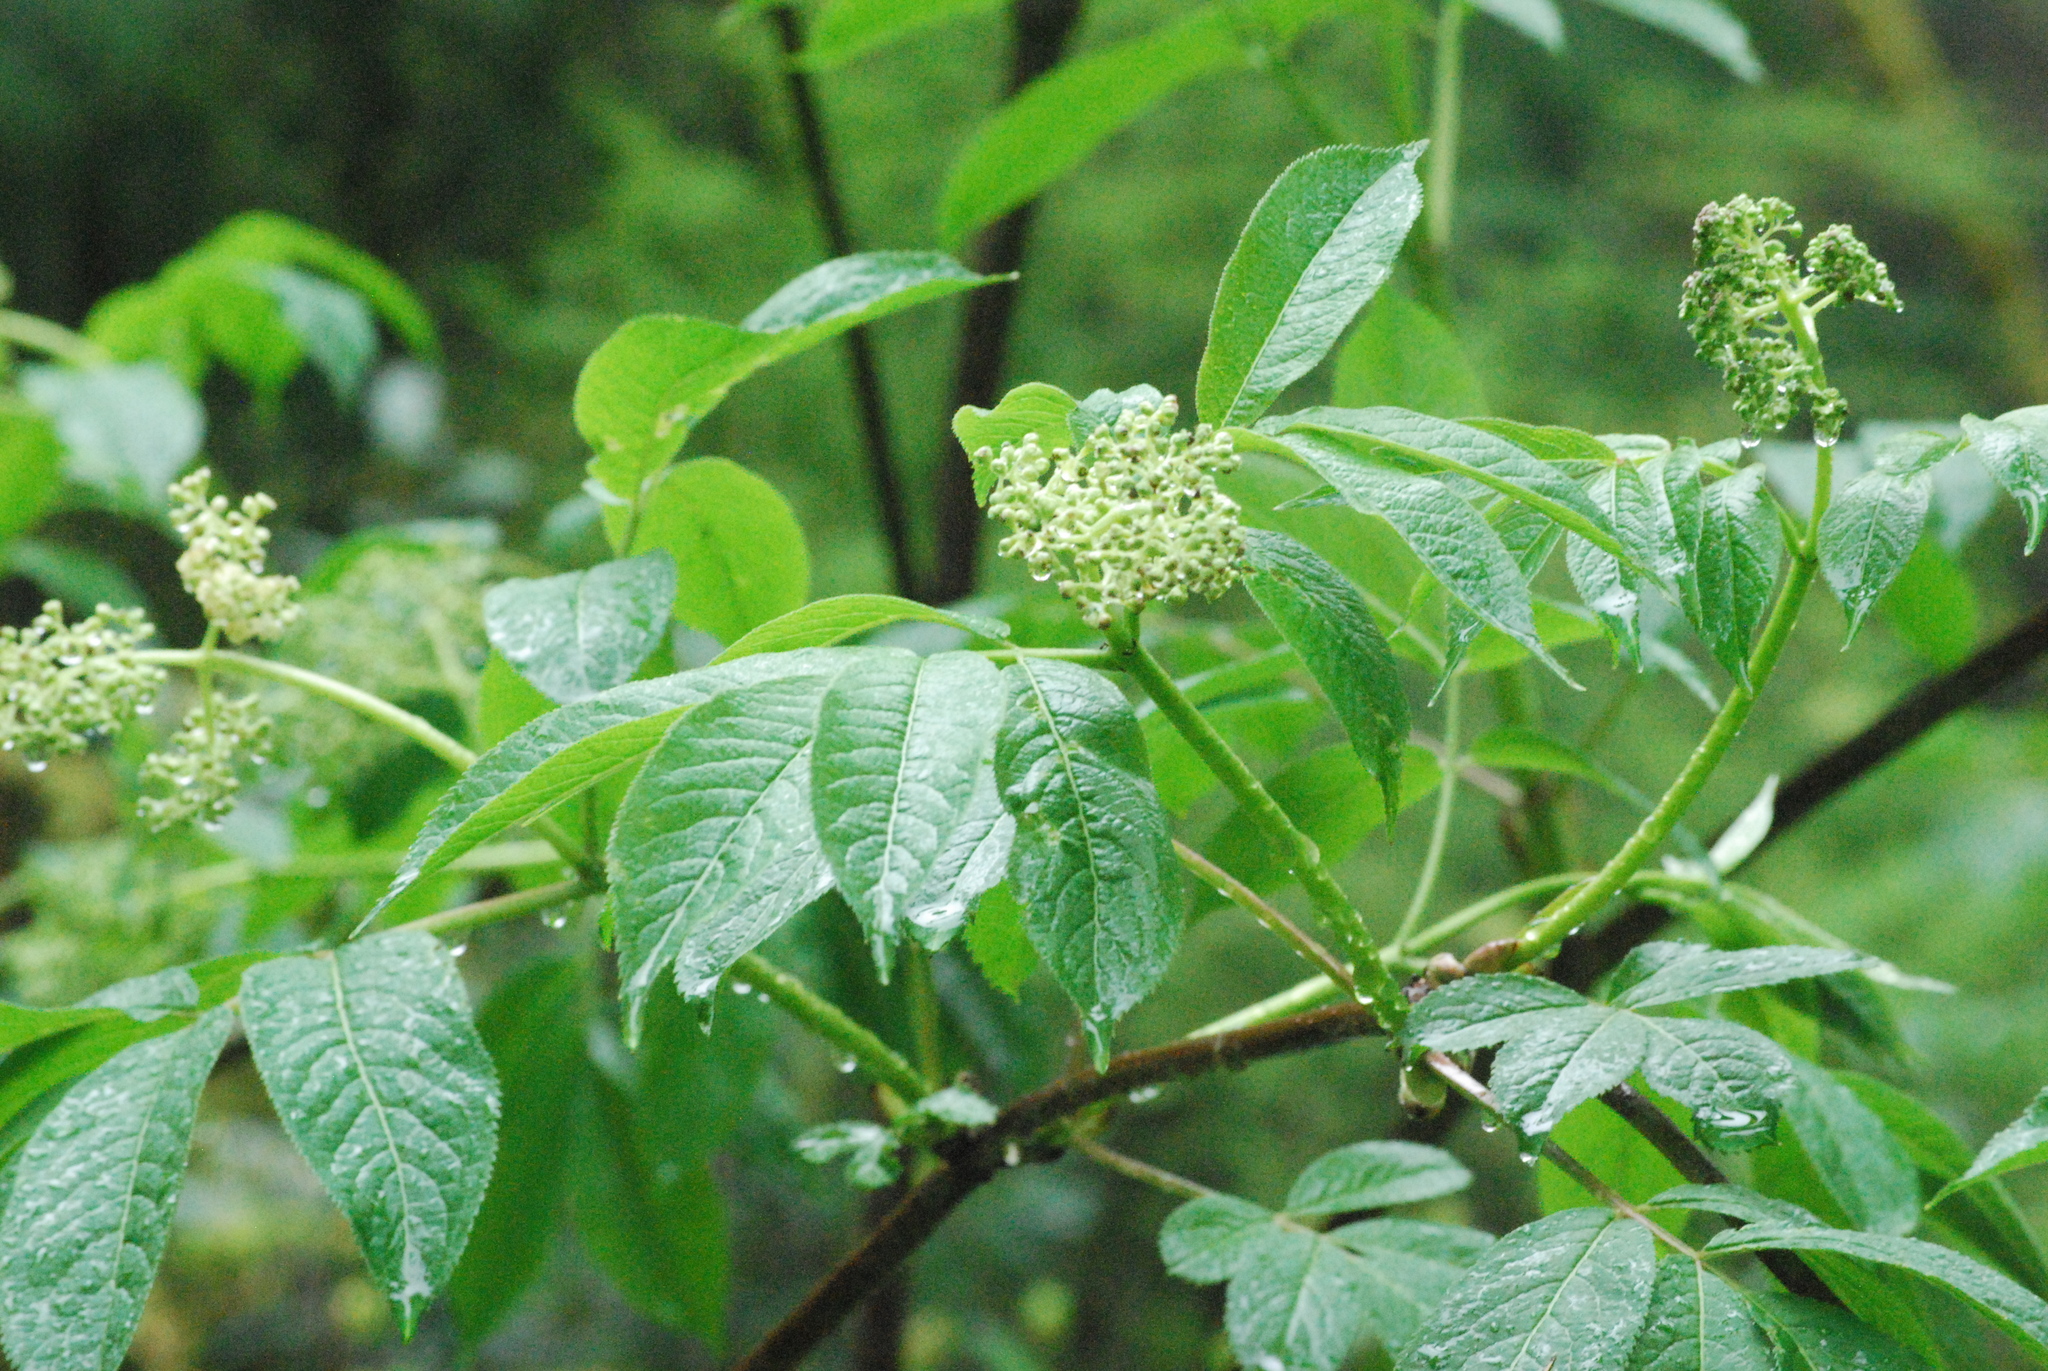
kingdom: Plantae
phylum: Tracheophyta
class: Magnoliopsida
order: Dipsacales
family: Viburnaceae
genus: Sambucus
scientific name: Sambucus racemosa
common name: Red-berried elder
